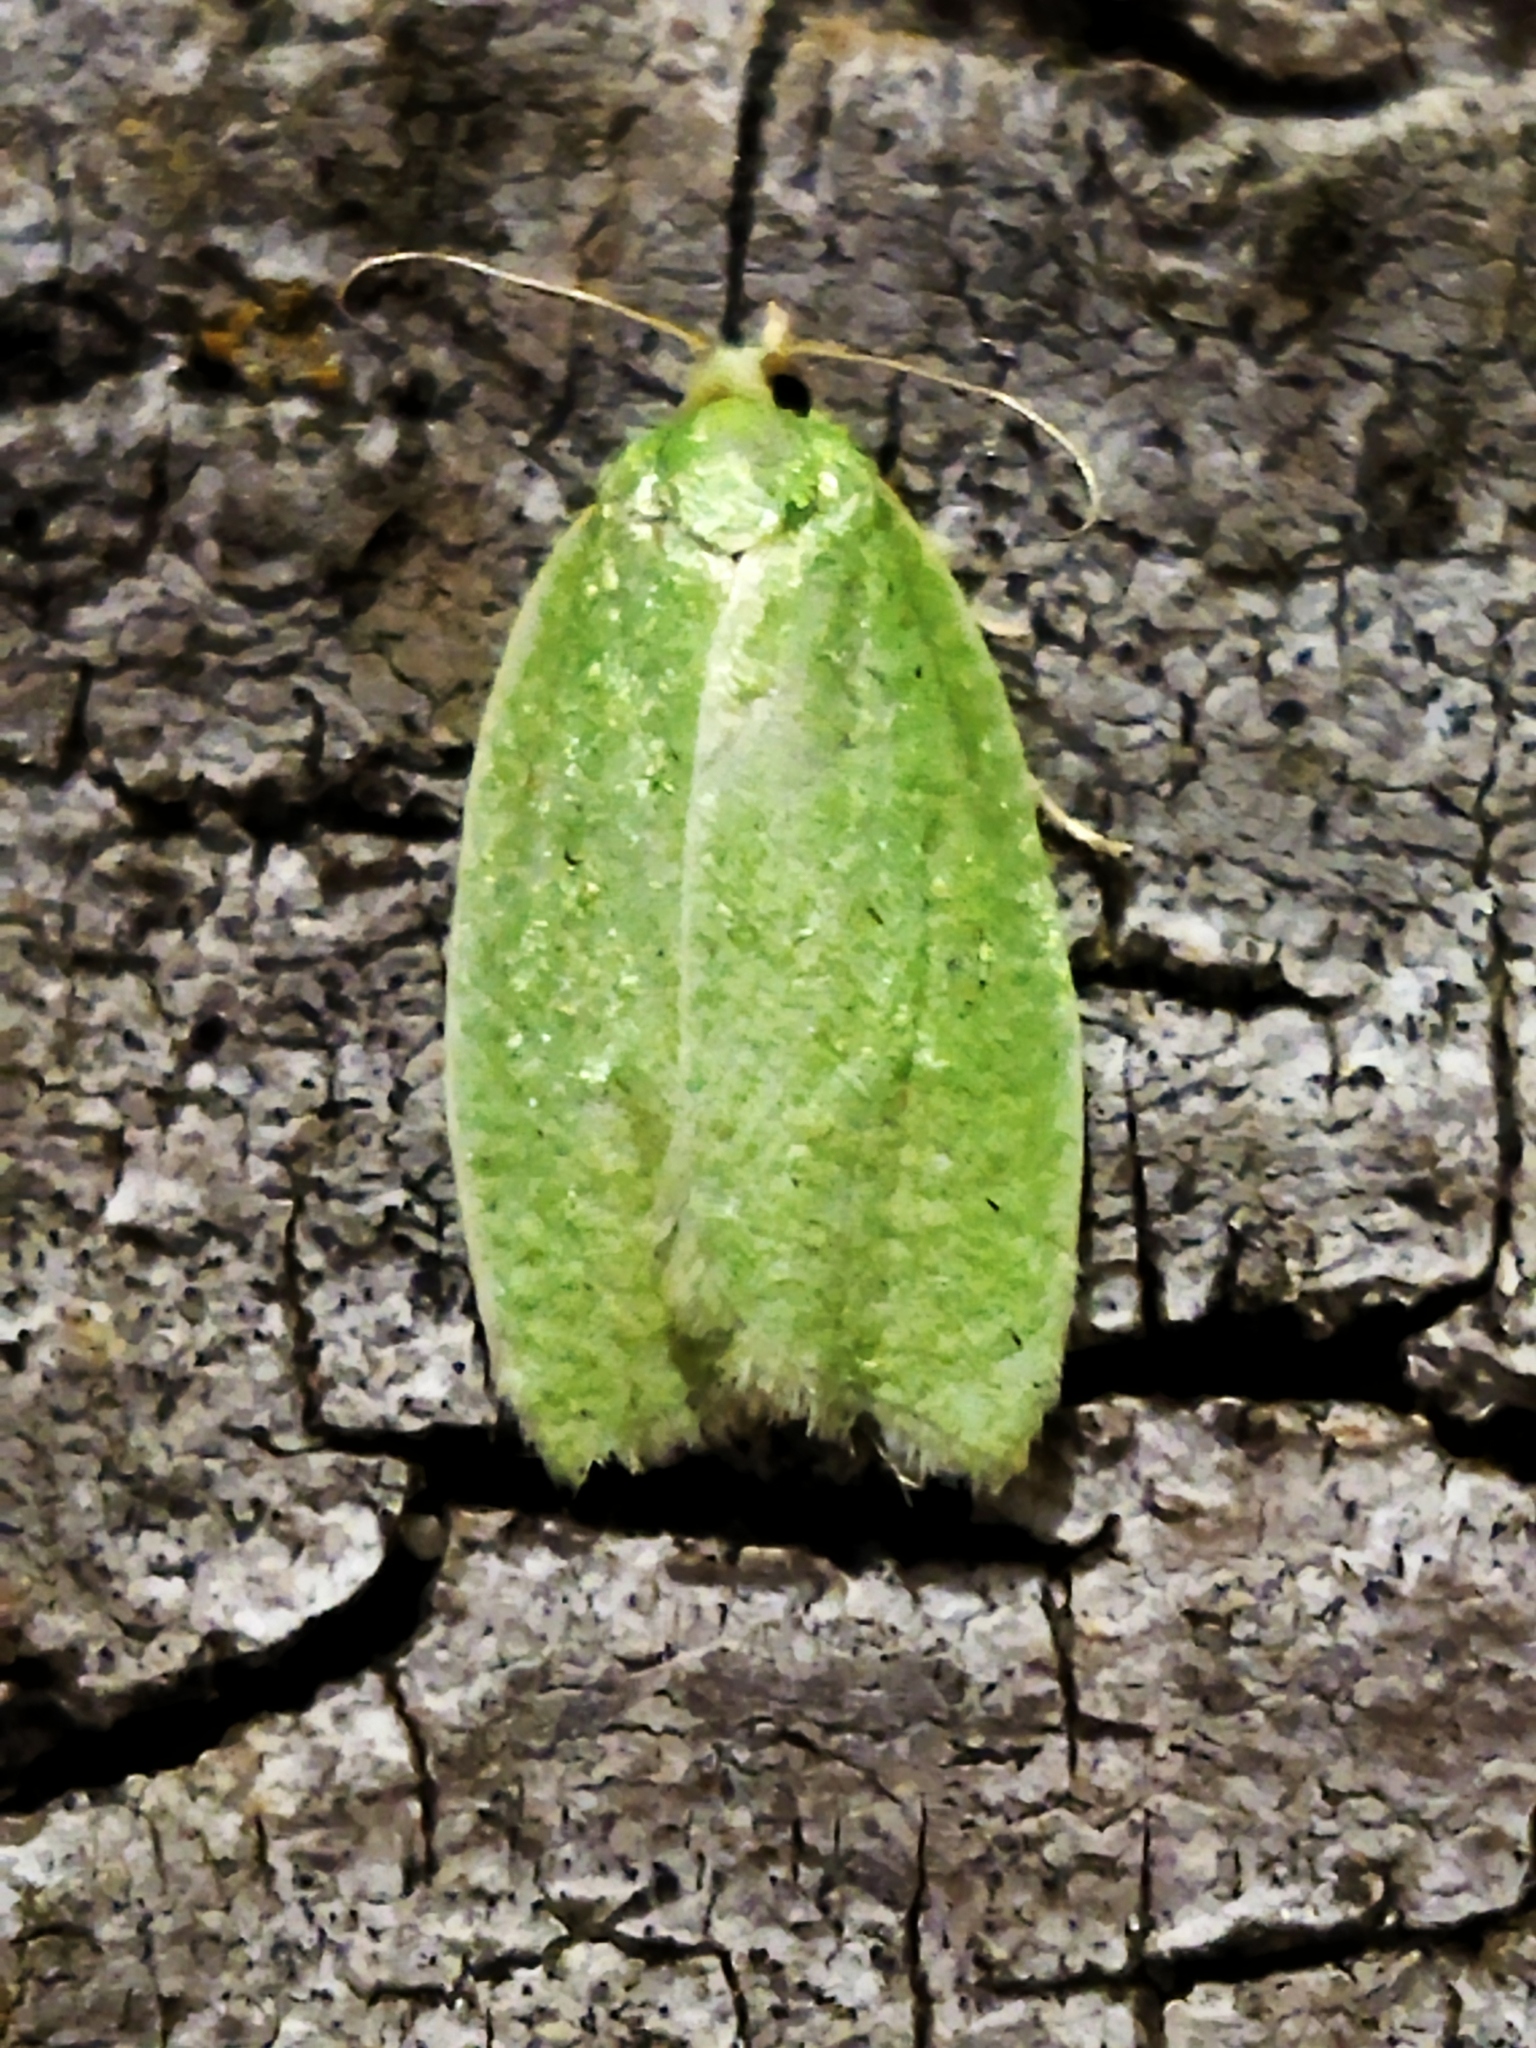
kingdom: Animalia
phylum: Arthropoda
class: Insecta
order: Lepidoptera
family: Tortricidae
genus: Tortrix
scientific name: Tortrix viridana
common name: Green oak tortrix
